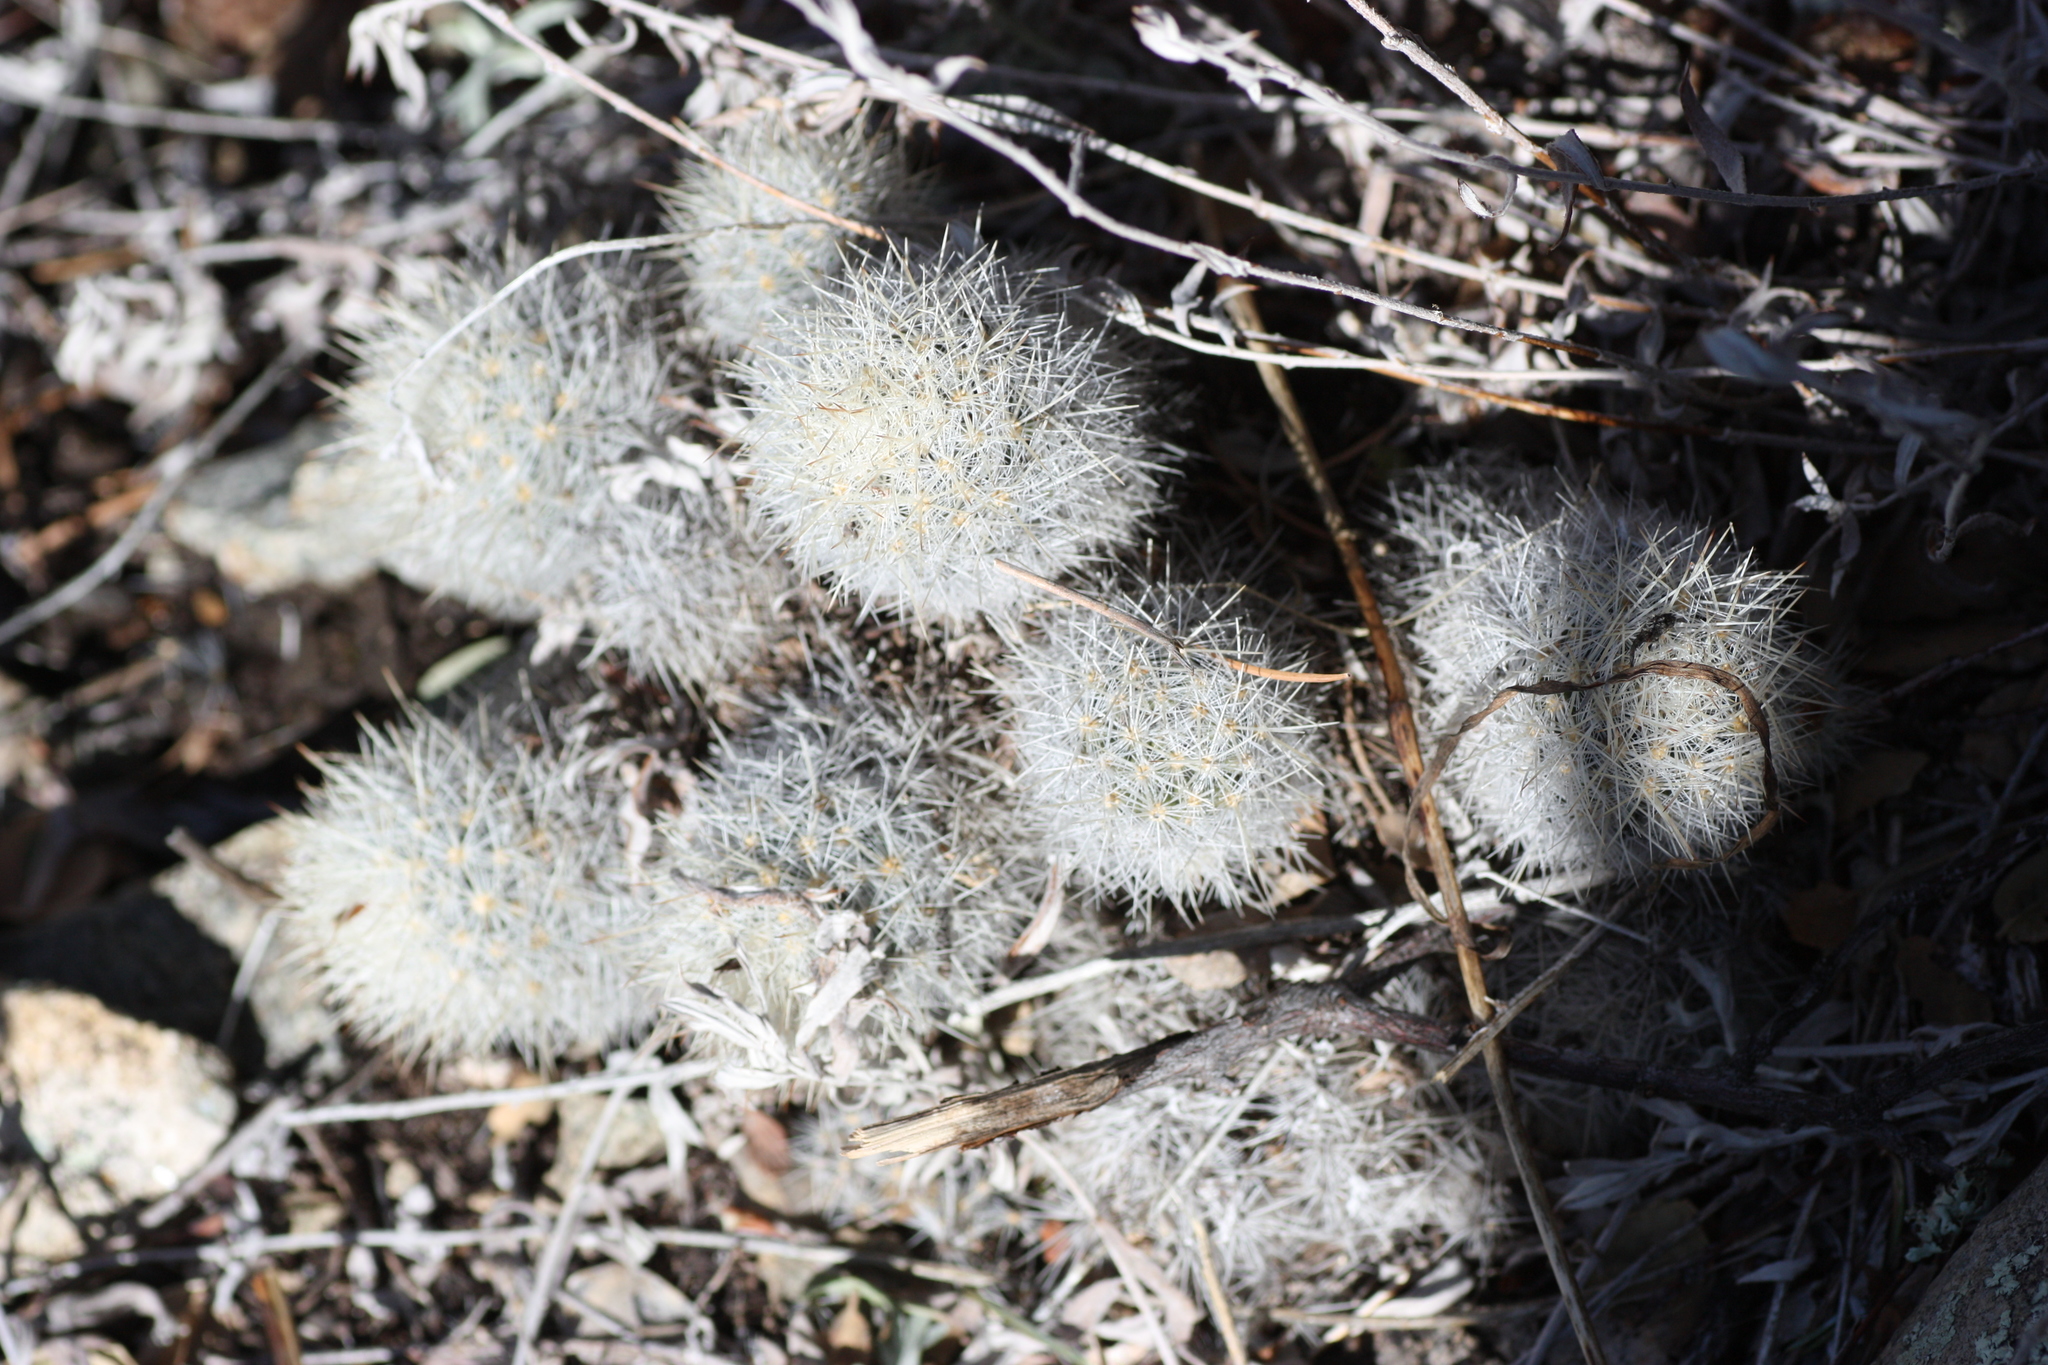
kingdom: Plantae
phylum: Tracheophyta
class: Magnoliopsida
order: Caryophyllales
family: Cactaceae
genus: Pelecyphora
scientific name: Pelecyphora sneedii
